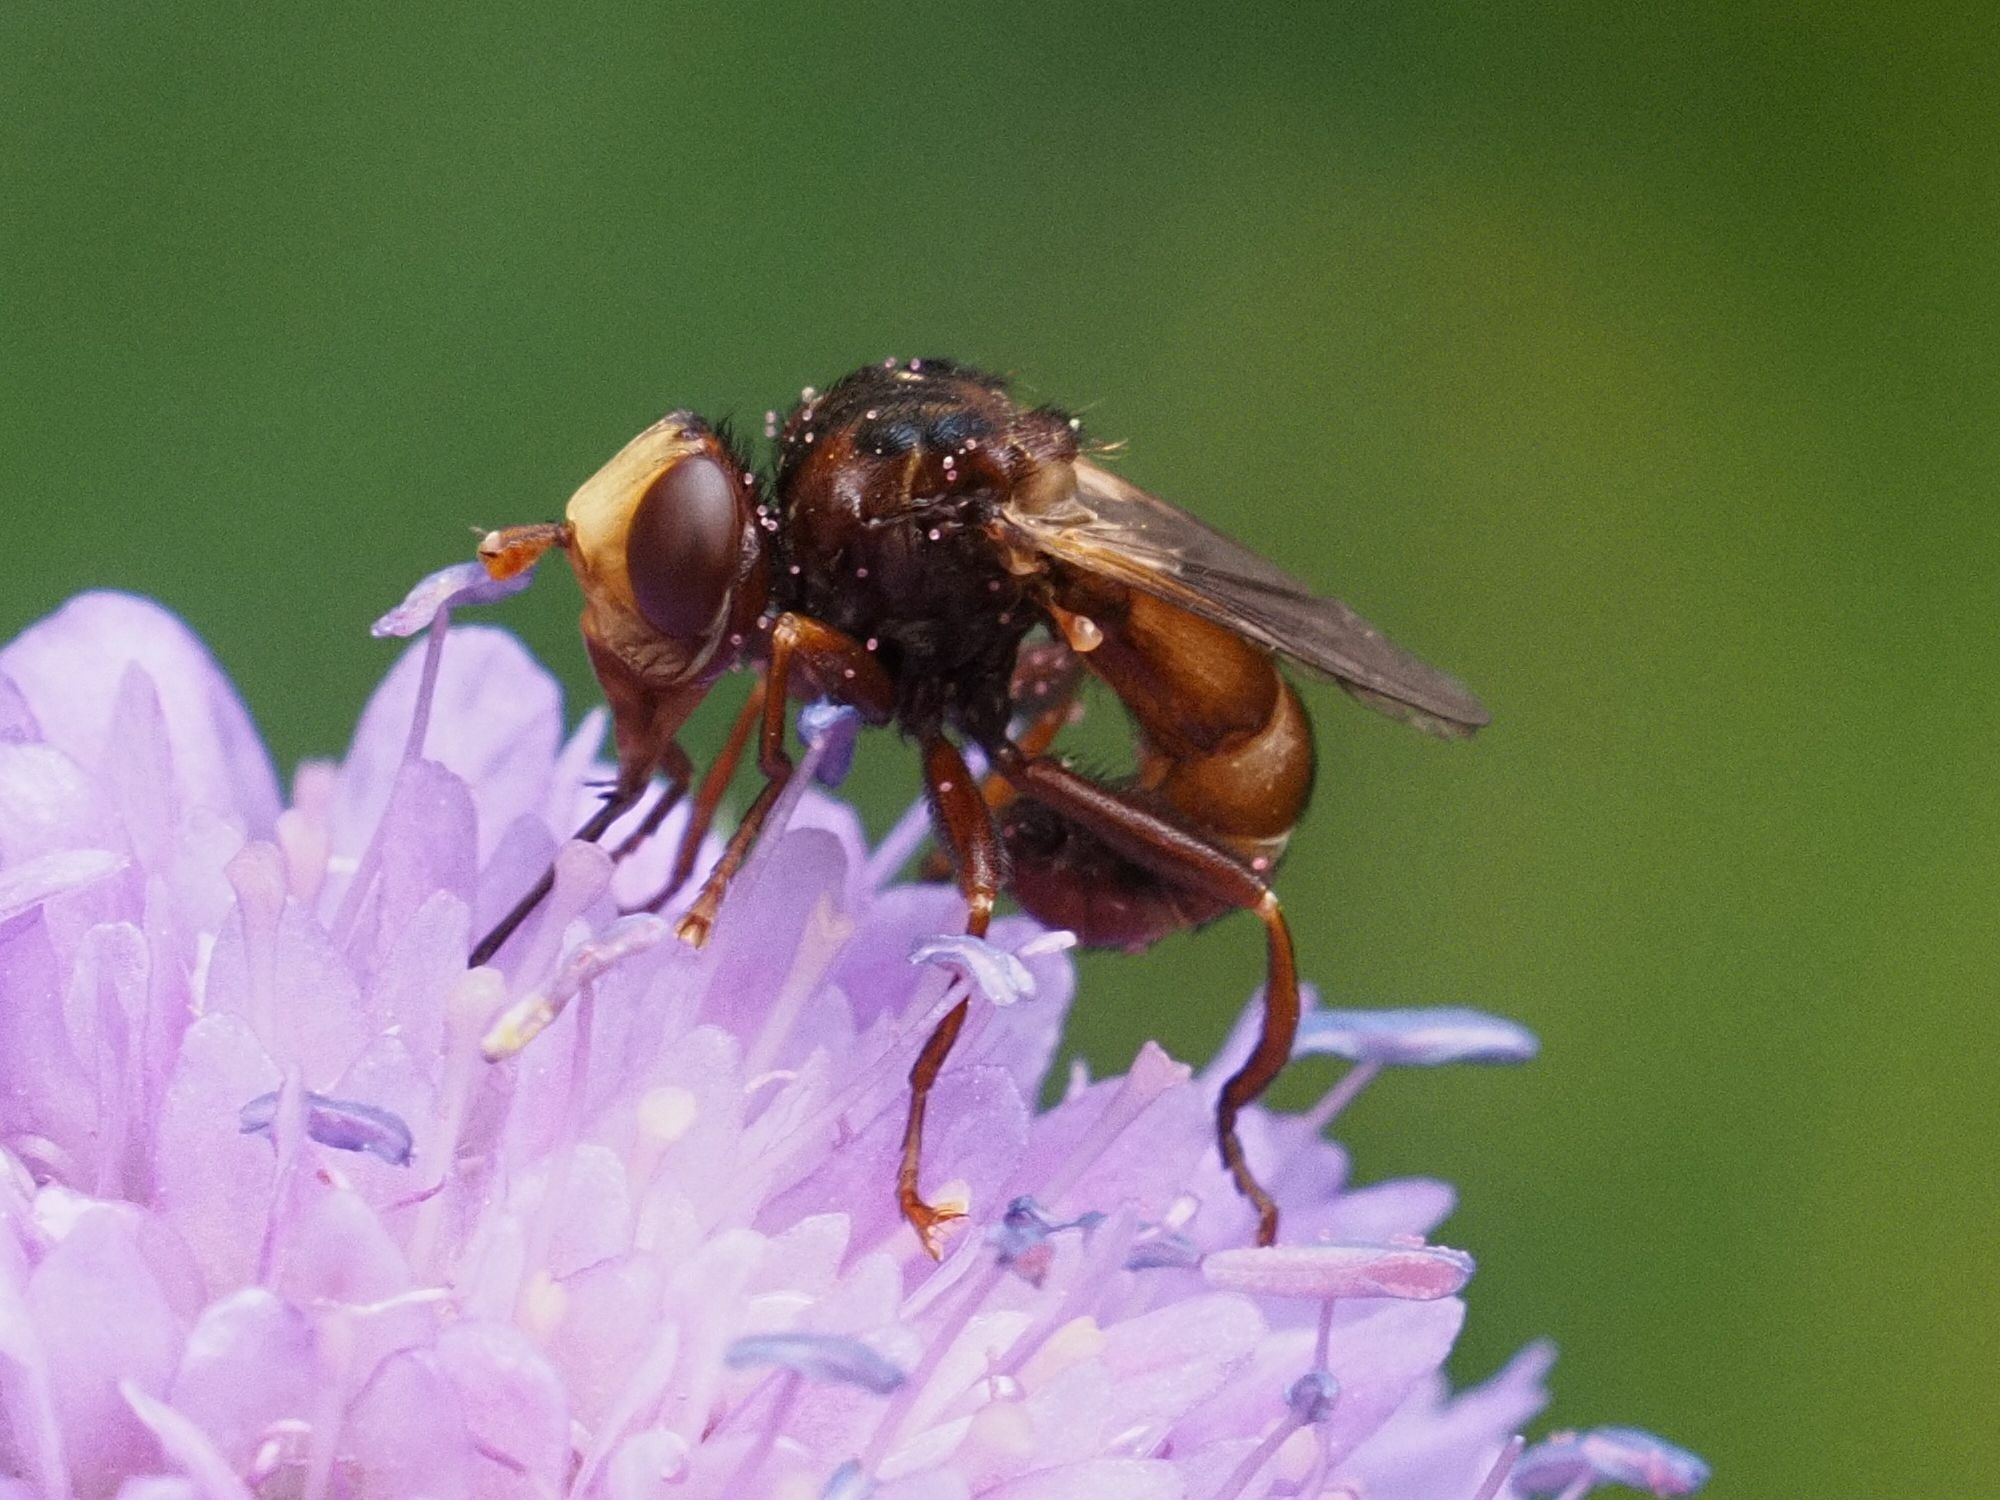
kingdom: Animalia
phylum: Arthropoda
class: Insecta
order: Diptera
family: Conopidae
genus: Sicus
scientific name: Sicus ferrugineus
